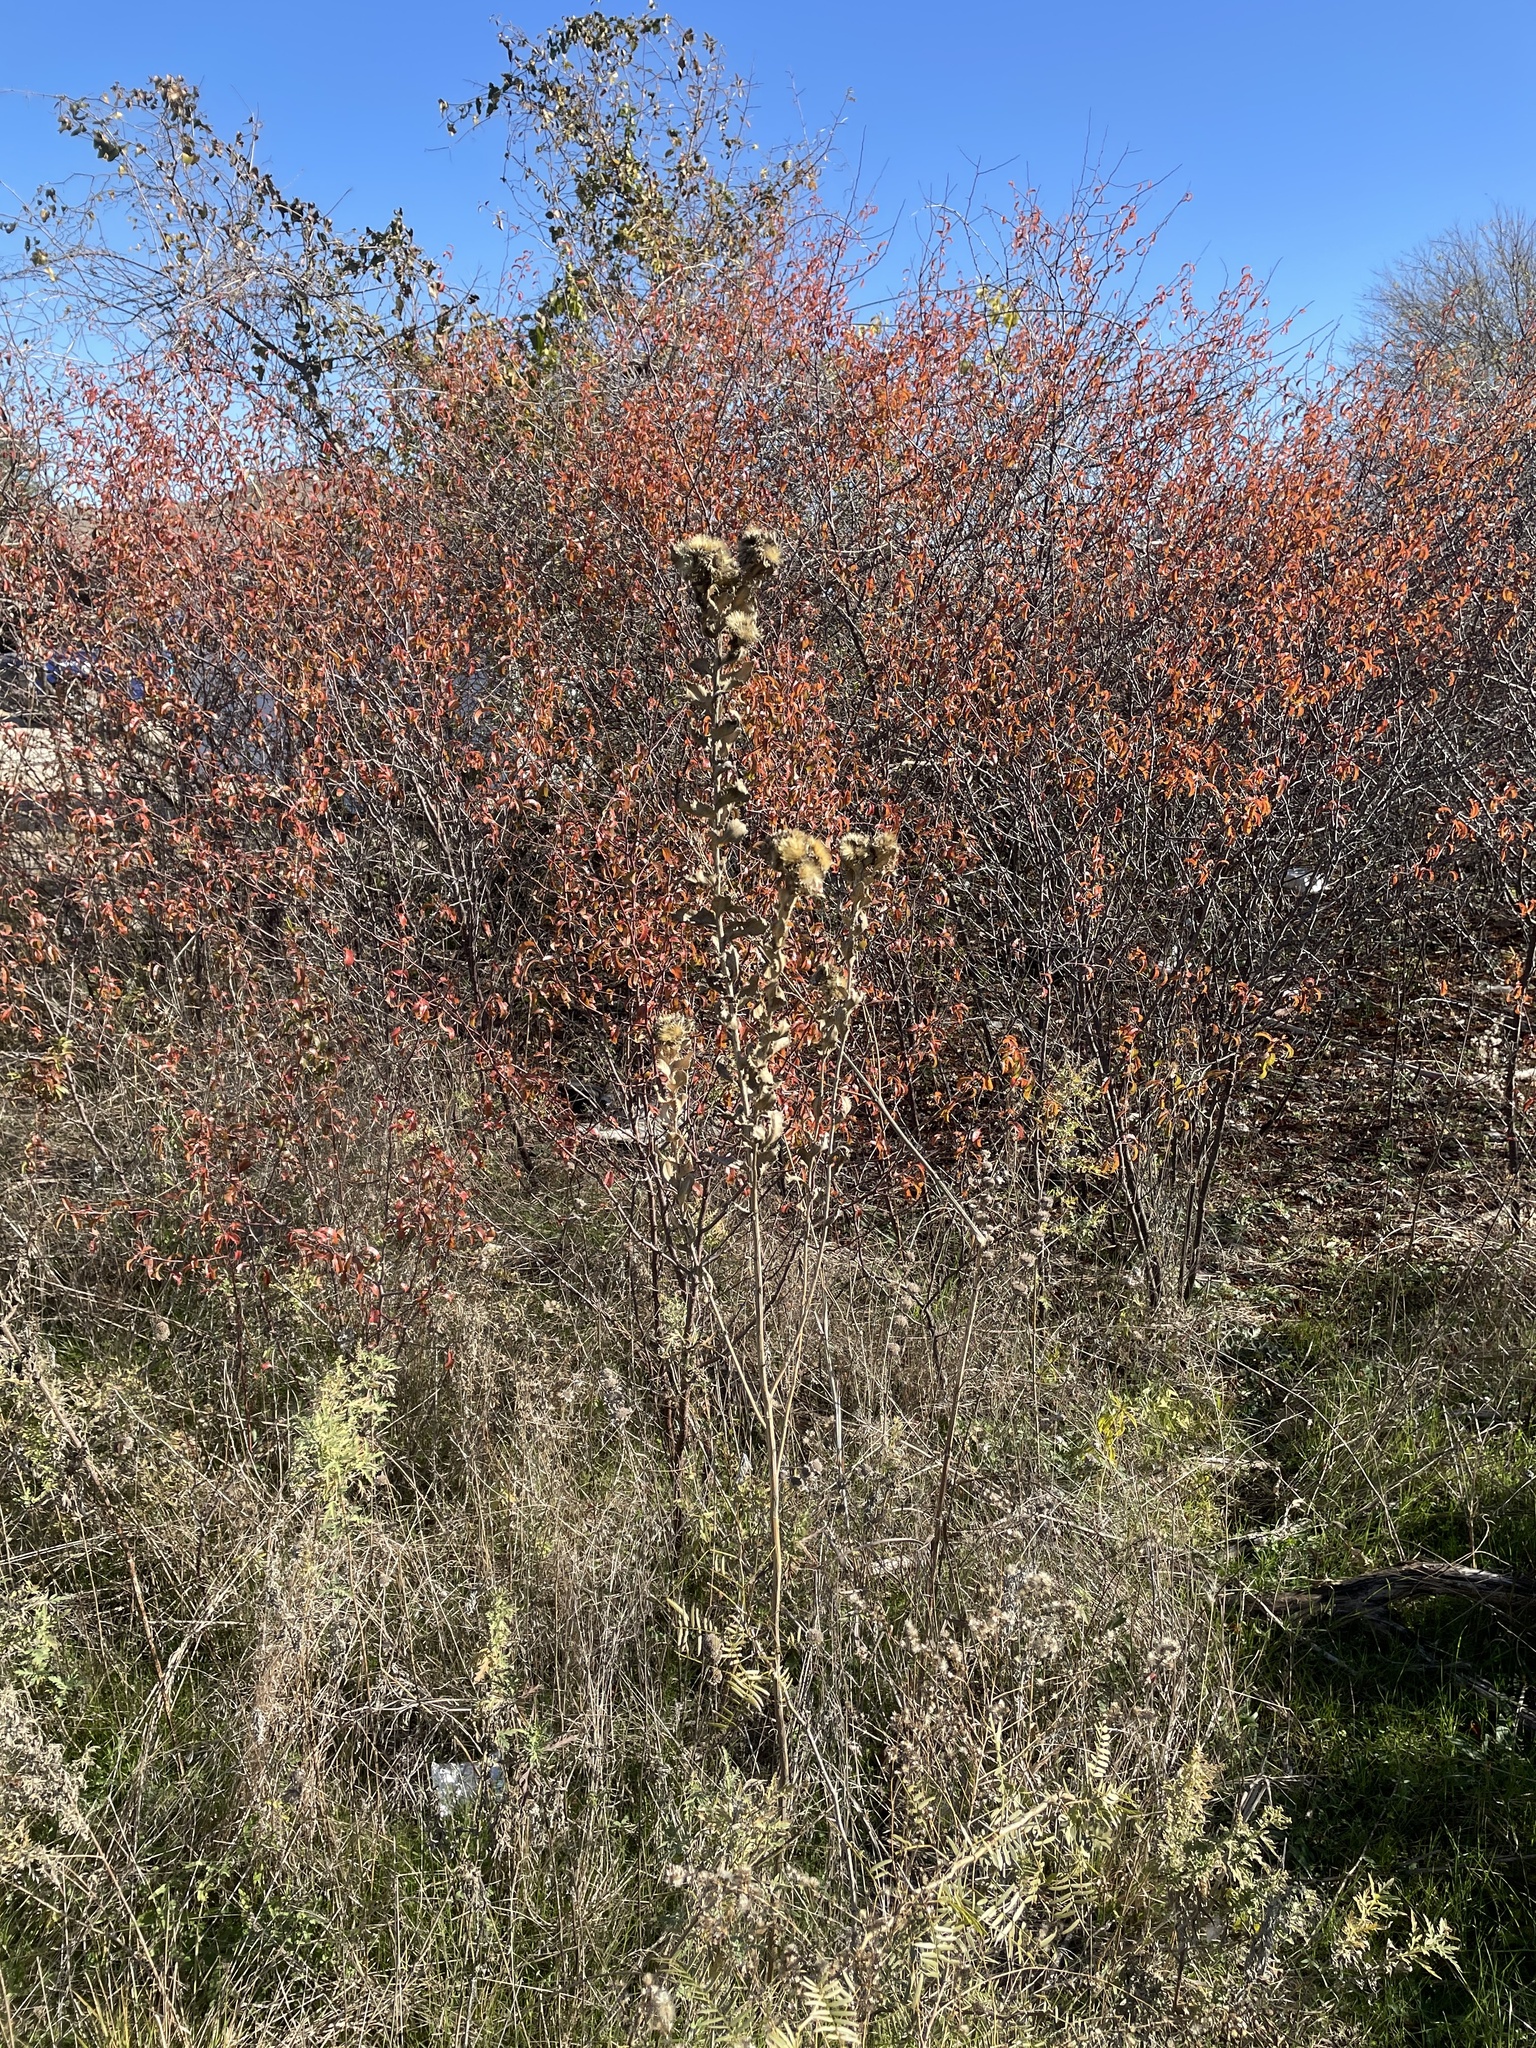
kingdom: Plantae
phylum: Tracheophyta
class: Magnoliopsida
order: Asterales
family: Asteraceae
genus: Grindelia
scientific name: Grindelia ciliata
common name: Goldenweed
